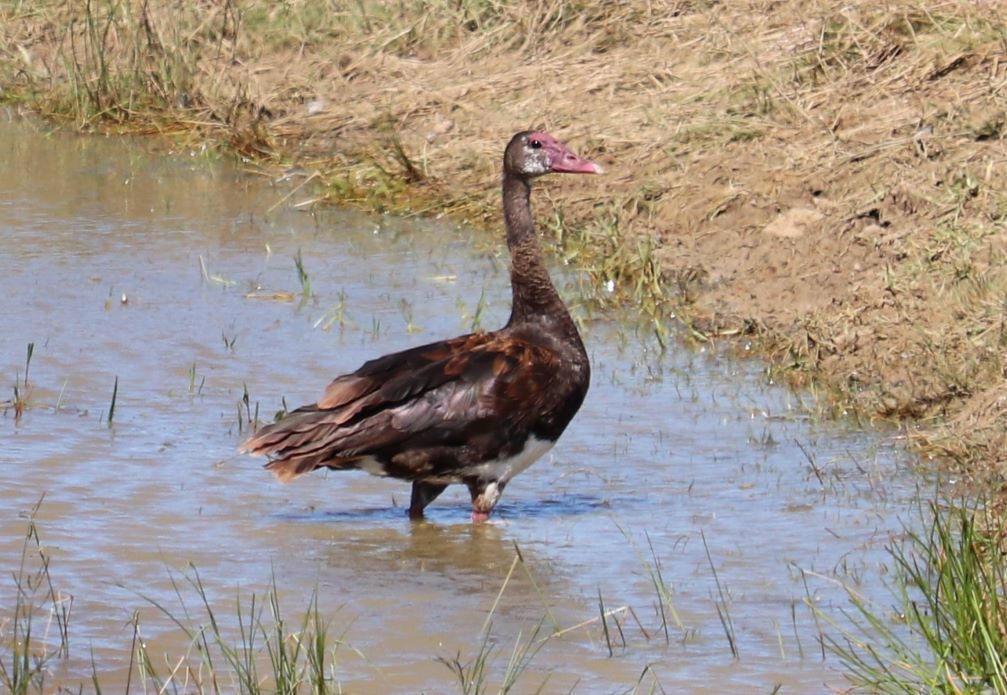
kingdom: Animalia
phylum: Chordata
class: Aves
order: Anseriformes
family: Anatidae
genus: Plectropterus
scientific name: Plectropterus gambensis
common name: Spur-winged goose
